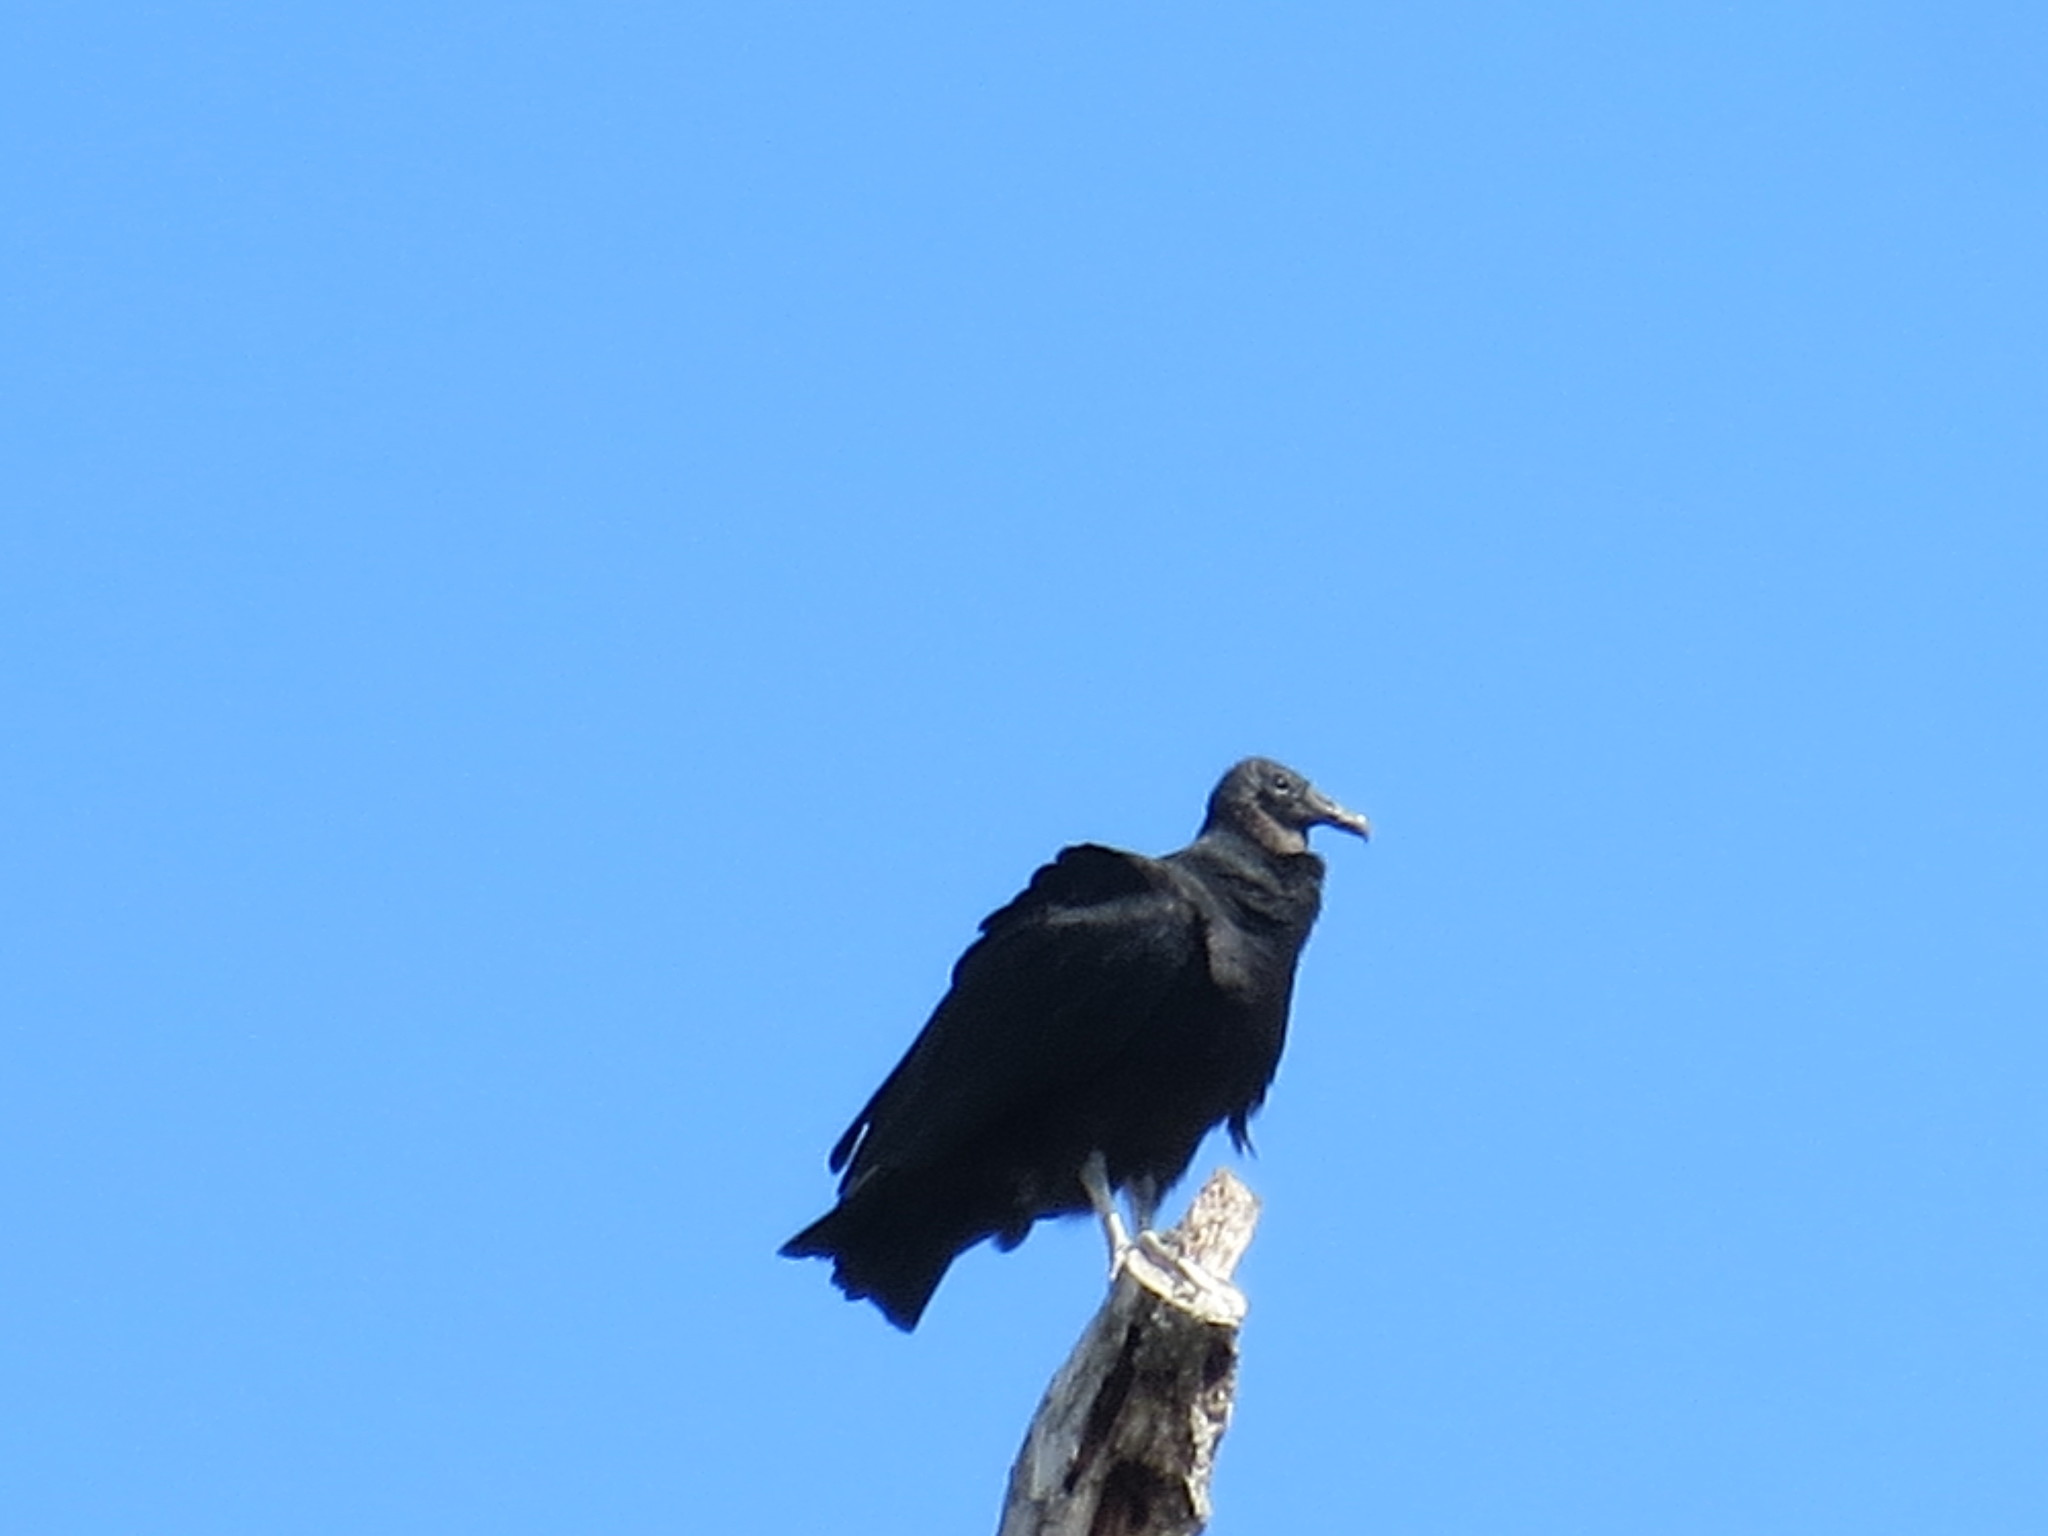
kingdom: Animalia
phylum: Chordata
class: Aves
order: Accipitriformes
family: Cathartidae
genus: Coragyps
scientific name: Coragyps atratus
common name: Black vulture
